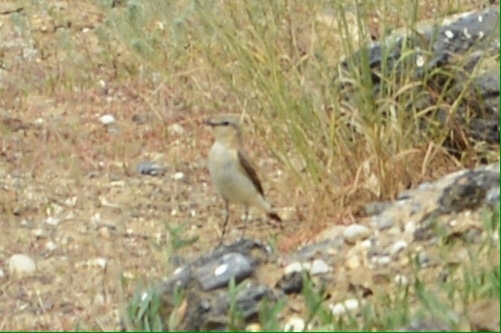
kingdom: Animalia
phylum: Chordata
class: Aves
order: Passeriformes
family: Muscicapidae
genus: Oenanthe
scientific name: Oenanthe oenanthe
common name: Northern wheatear
